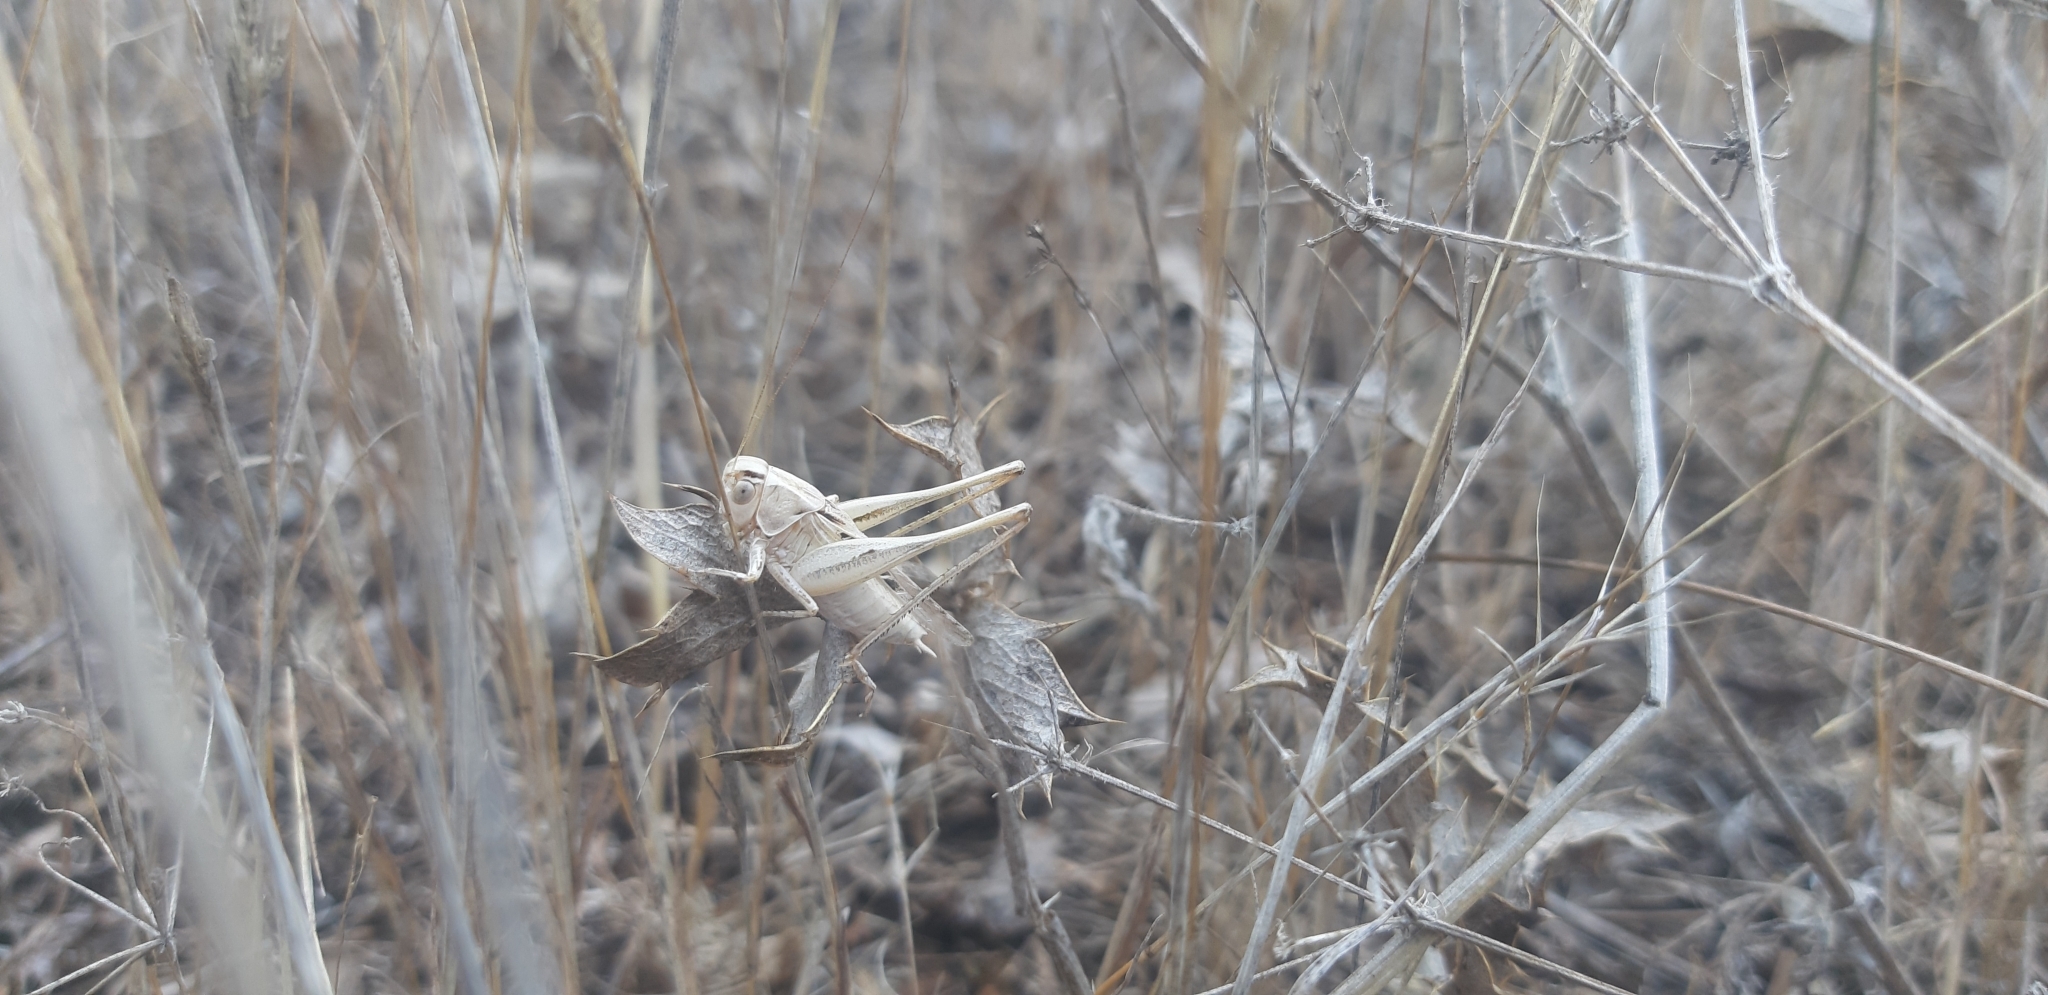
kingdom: Animalia
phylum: Arthropoda
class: Insecta
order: Orthoptera
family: Tettigoniidae
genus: Tessellana
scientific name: Tessellana tessellata
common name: Grasshopper
